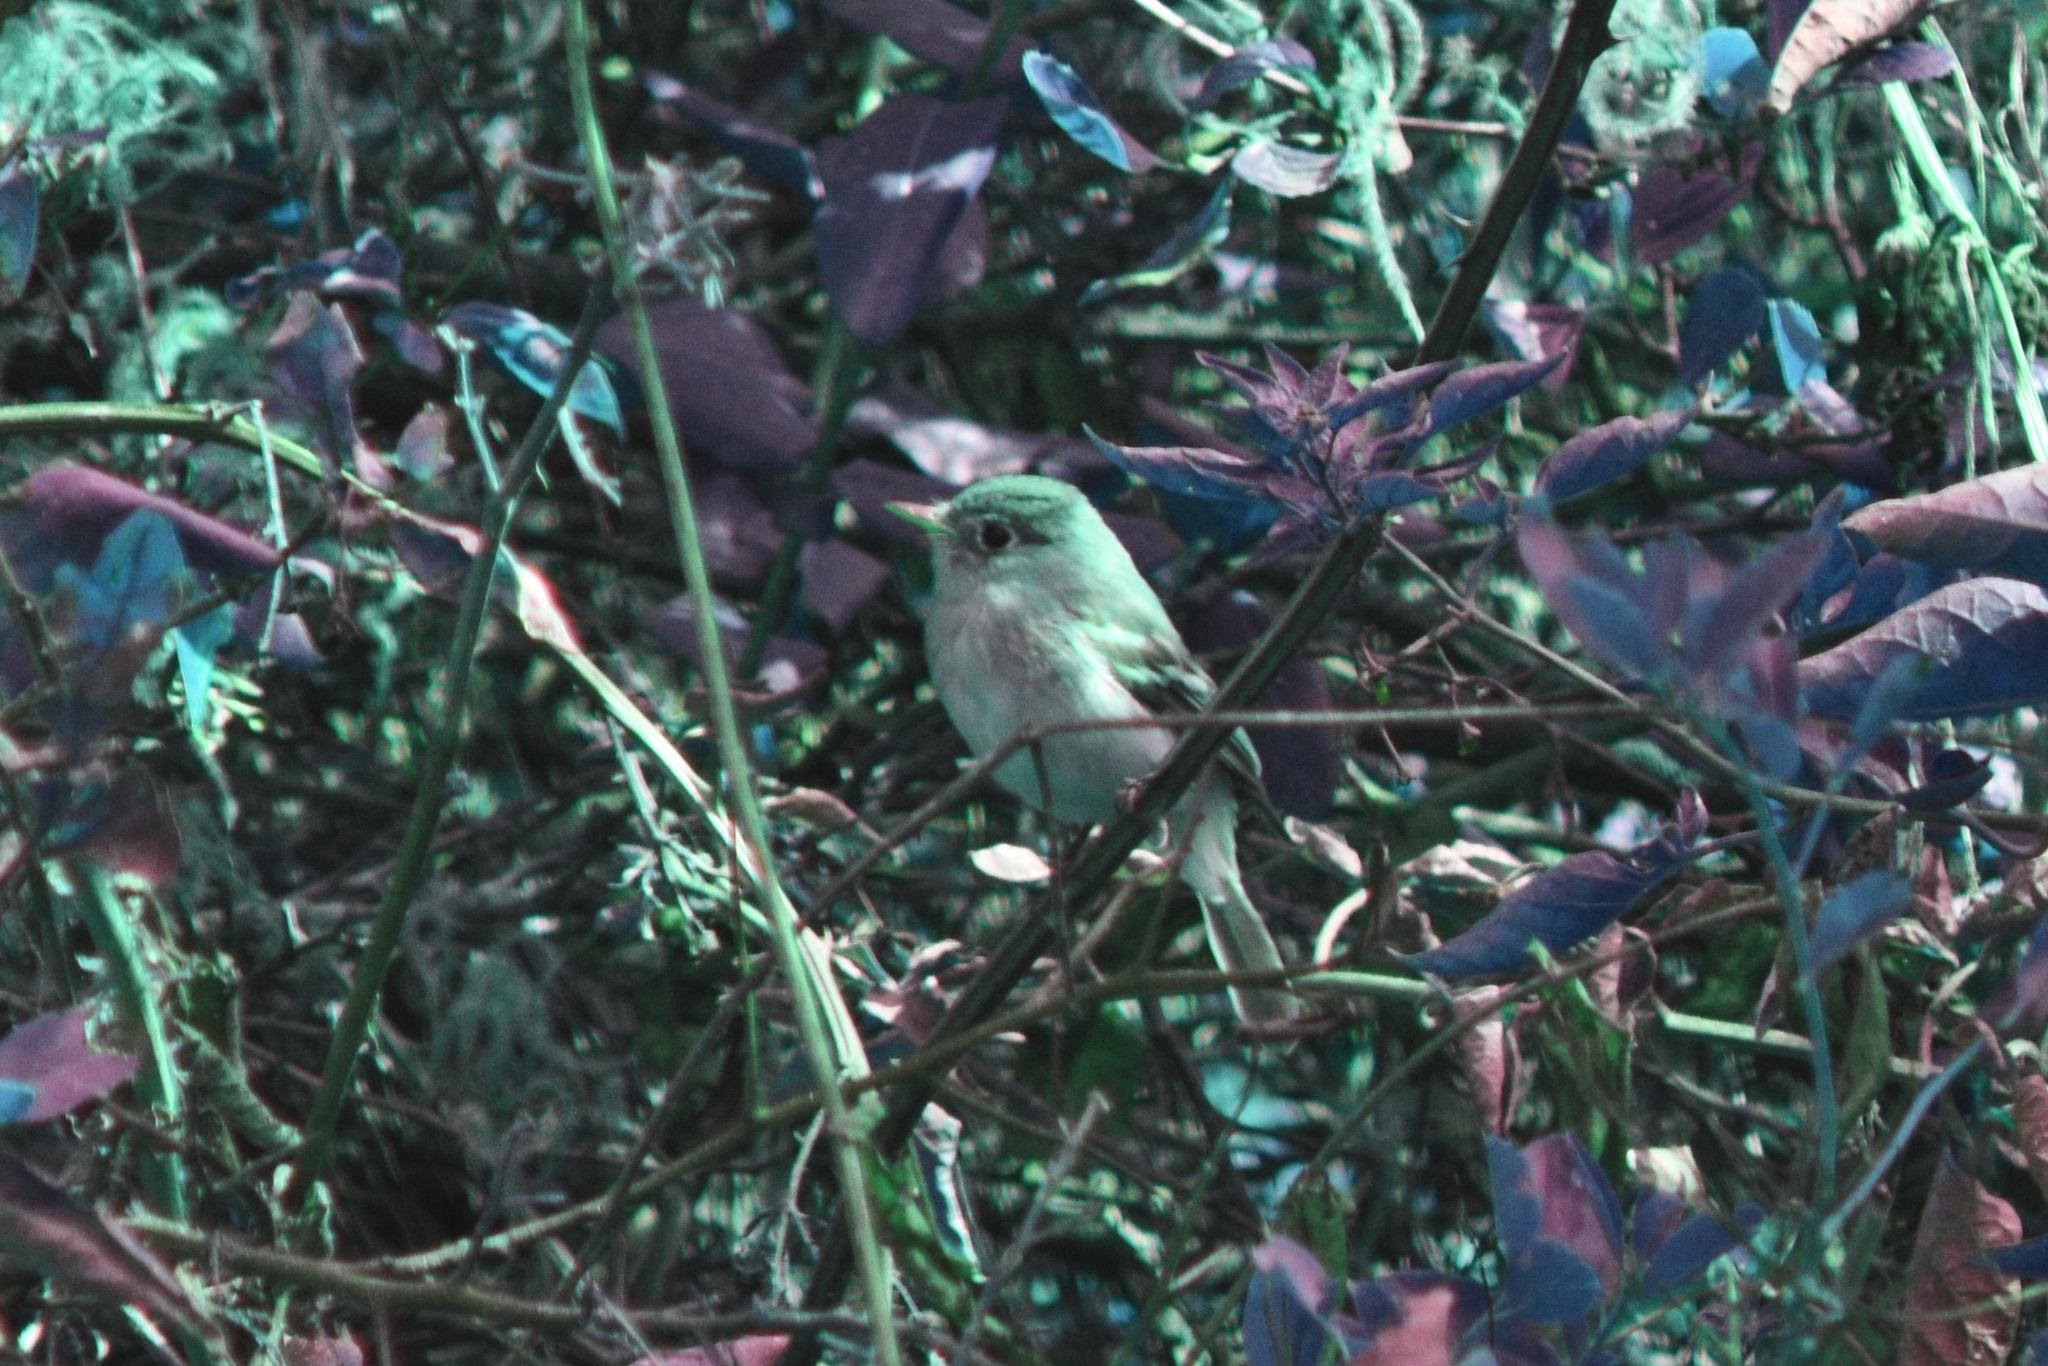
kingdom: Animalia
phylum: Chordata
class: Aves
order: Passeriformes
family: Tyrannidae
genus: Empidonax
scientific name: Empidonax difficilis
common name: Pacific-slope flycatcher
